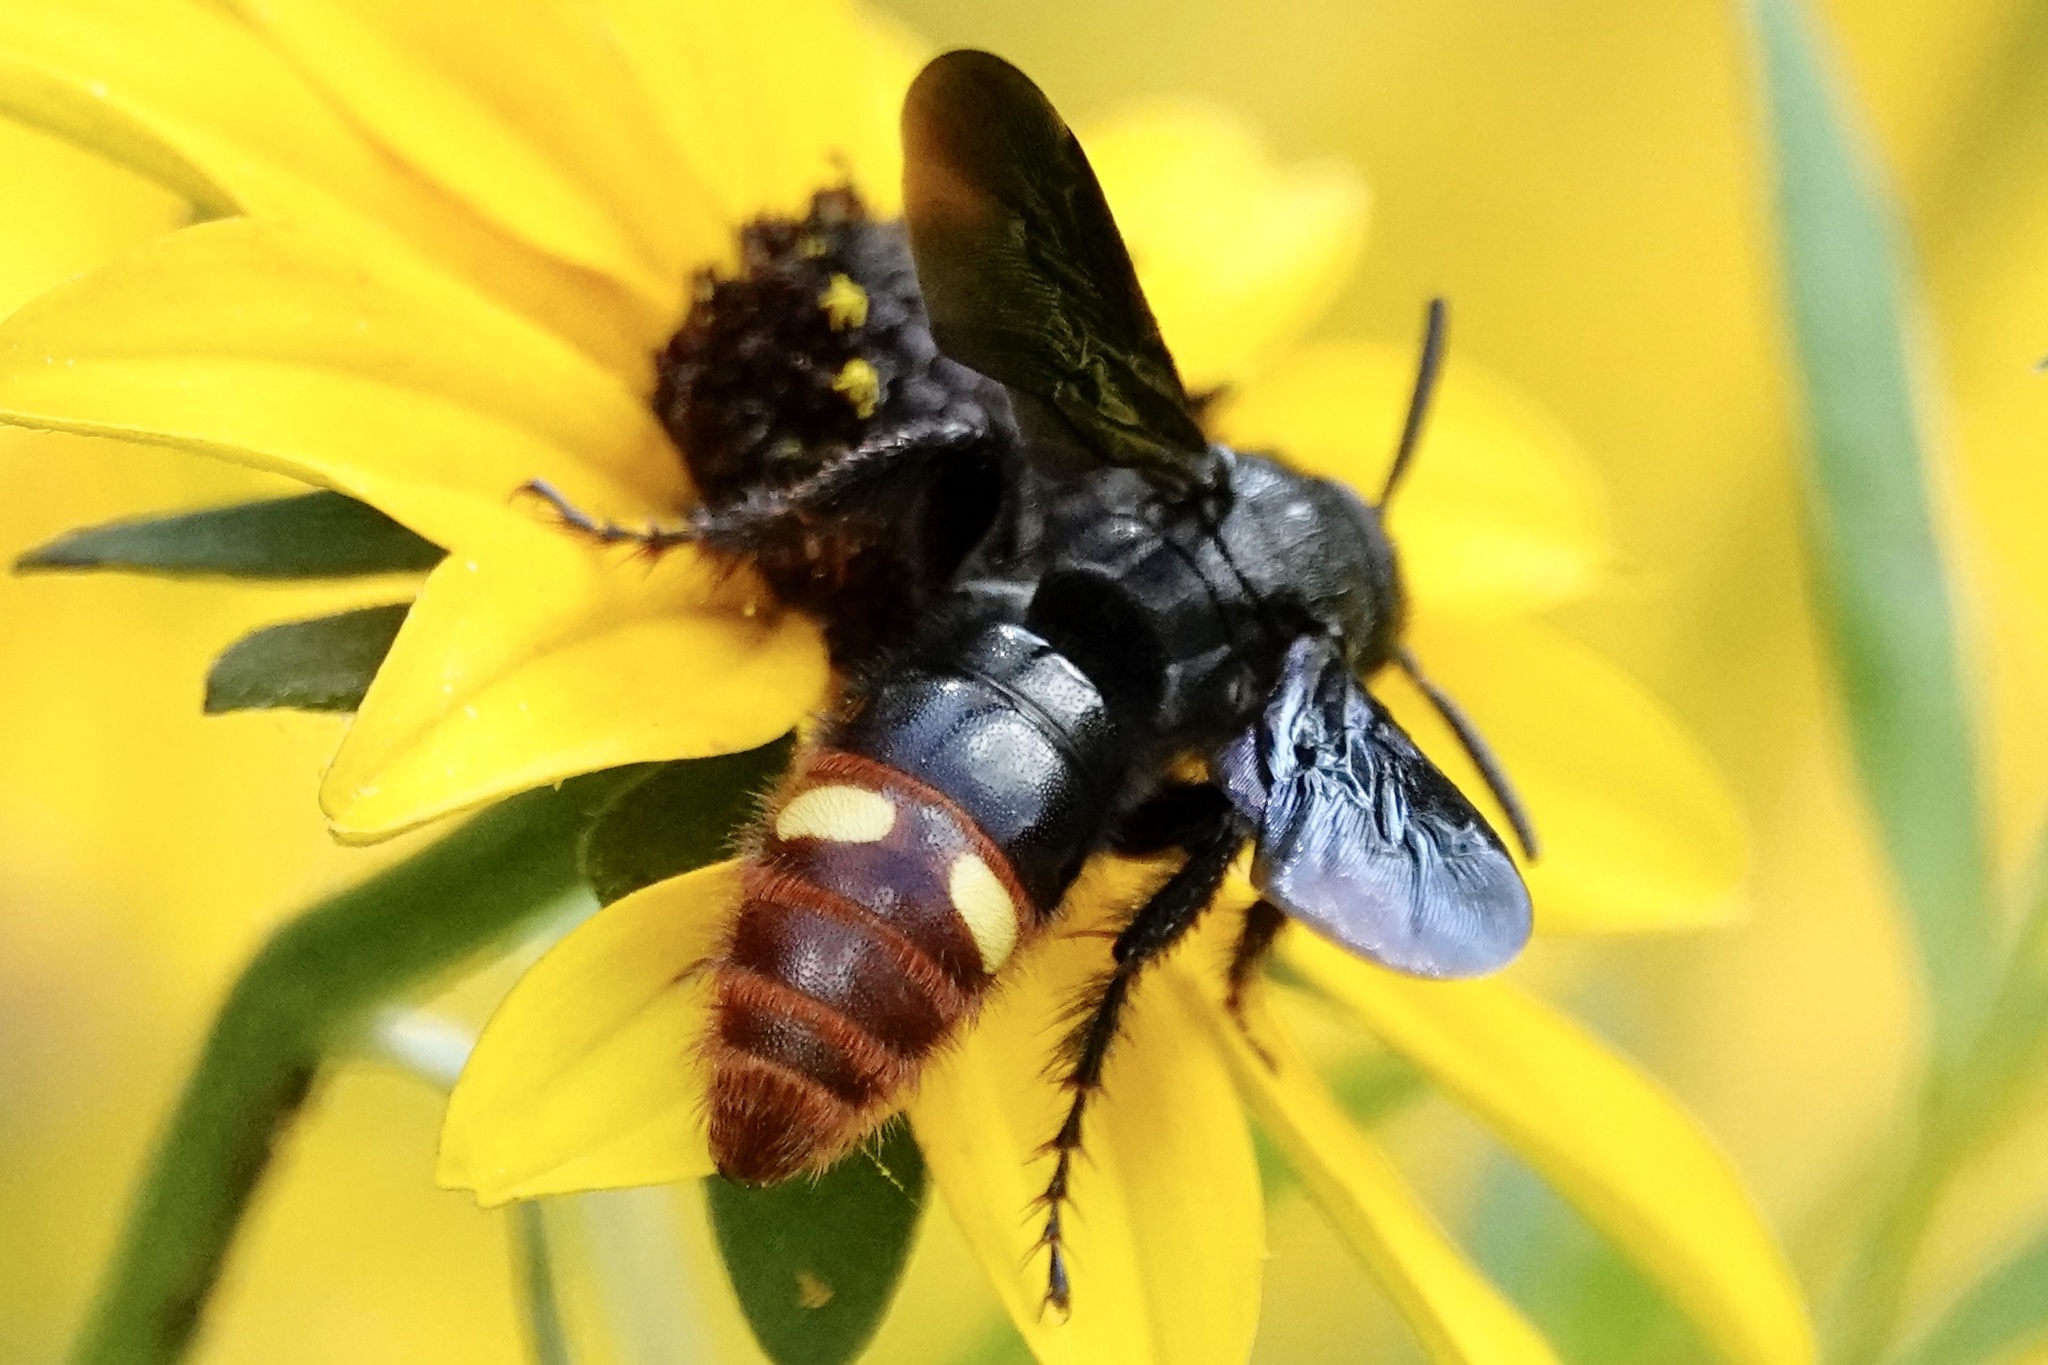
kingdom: Animalia
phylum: Arthropoda
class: Insecta
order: Hymenoptera
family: Scoliidae
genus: Scolia
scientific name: Scolia dubia
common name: Blue-winged scoliid wasp
